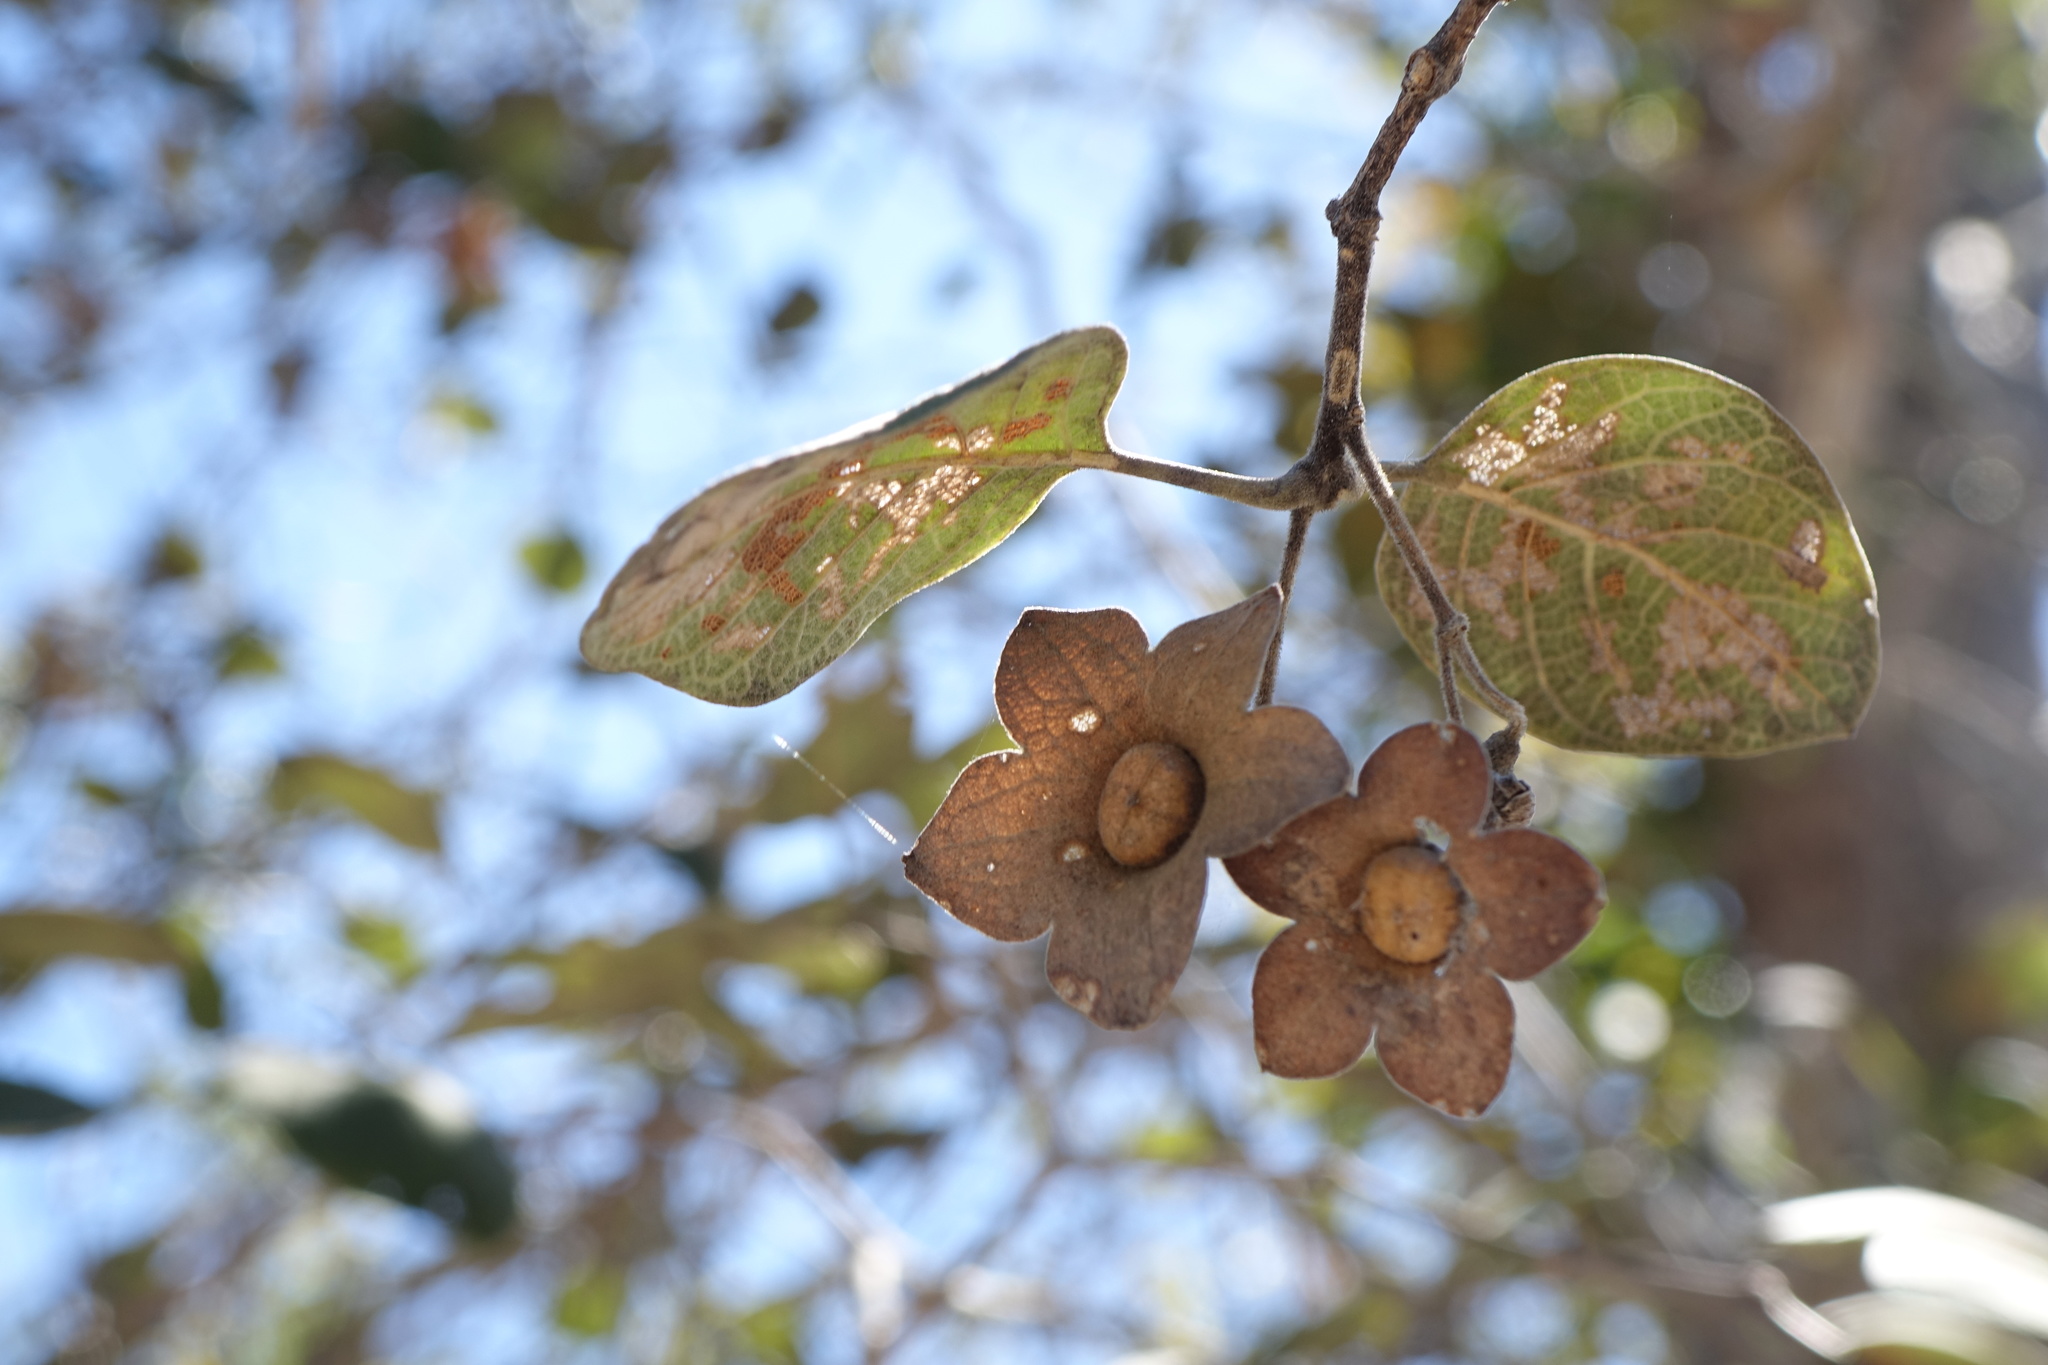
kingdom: Plantae
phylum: Tracheophyta
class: Magnoliopsida
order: Lamiales
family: Lamiaceae
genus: Karomia
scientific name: Karomia macrocalyx
